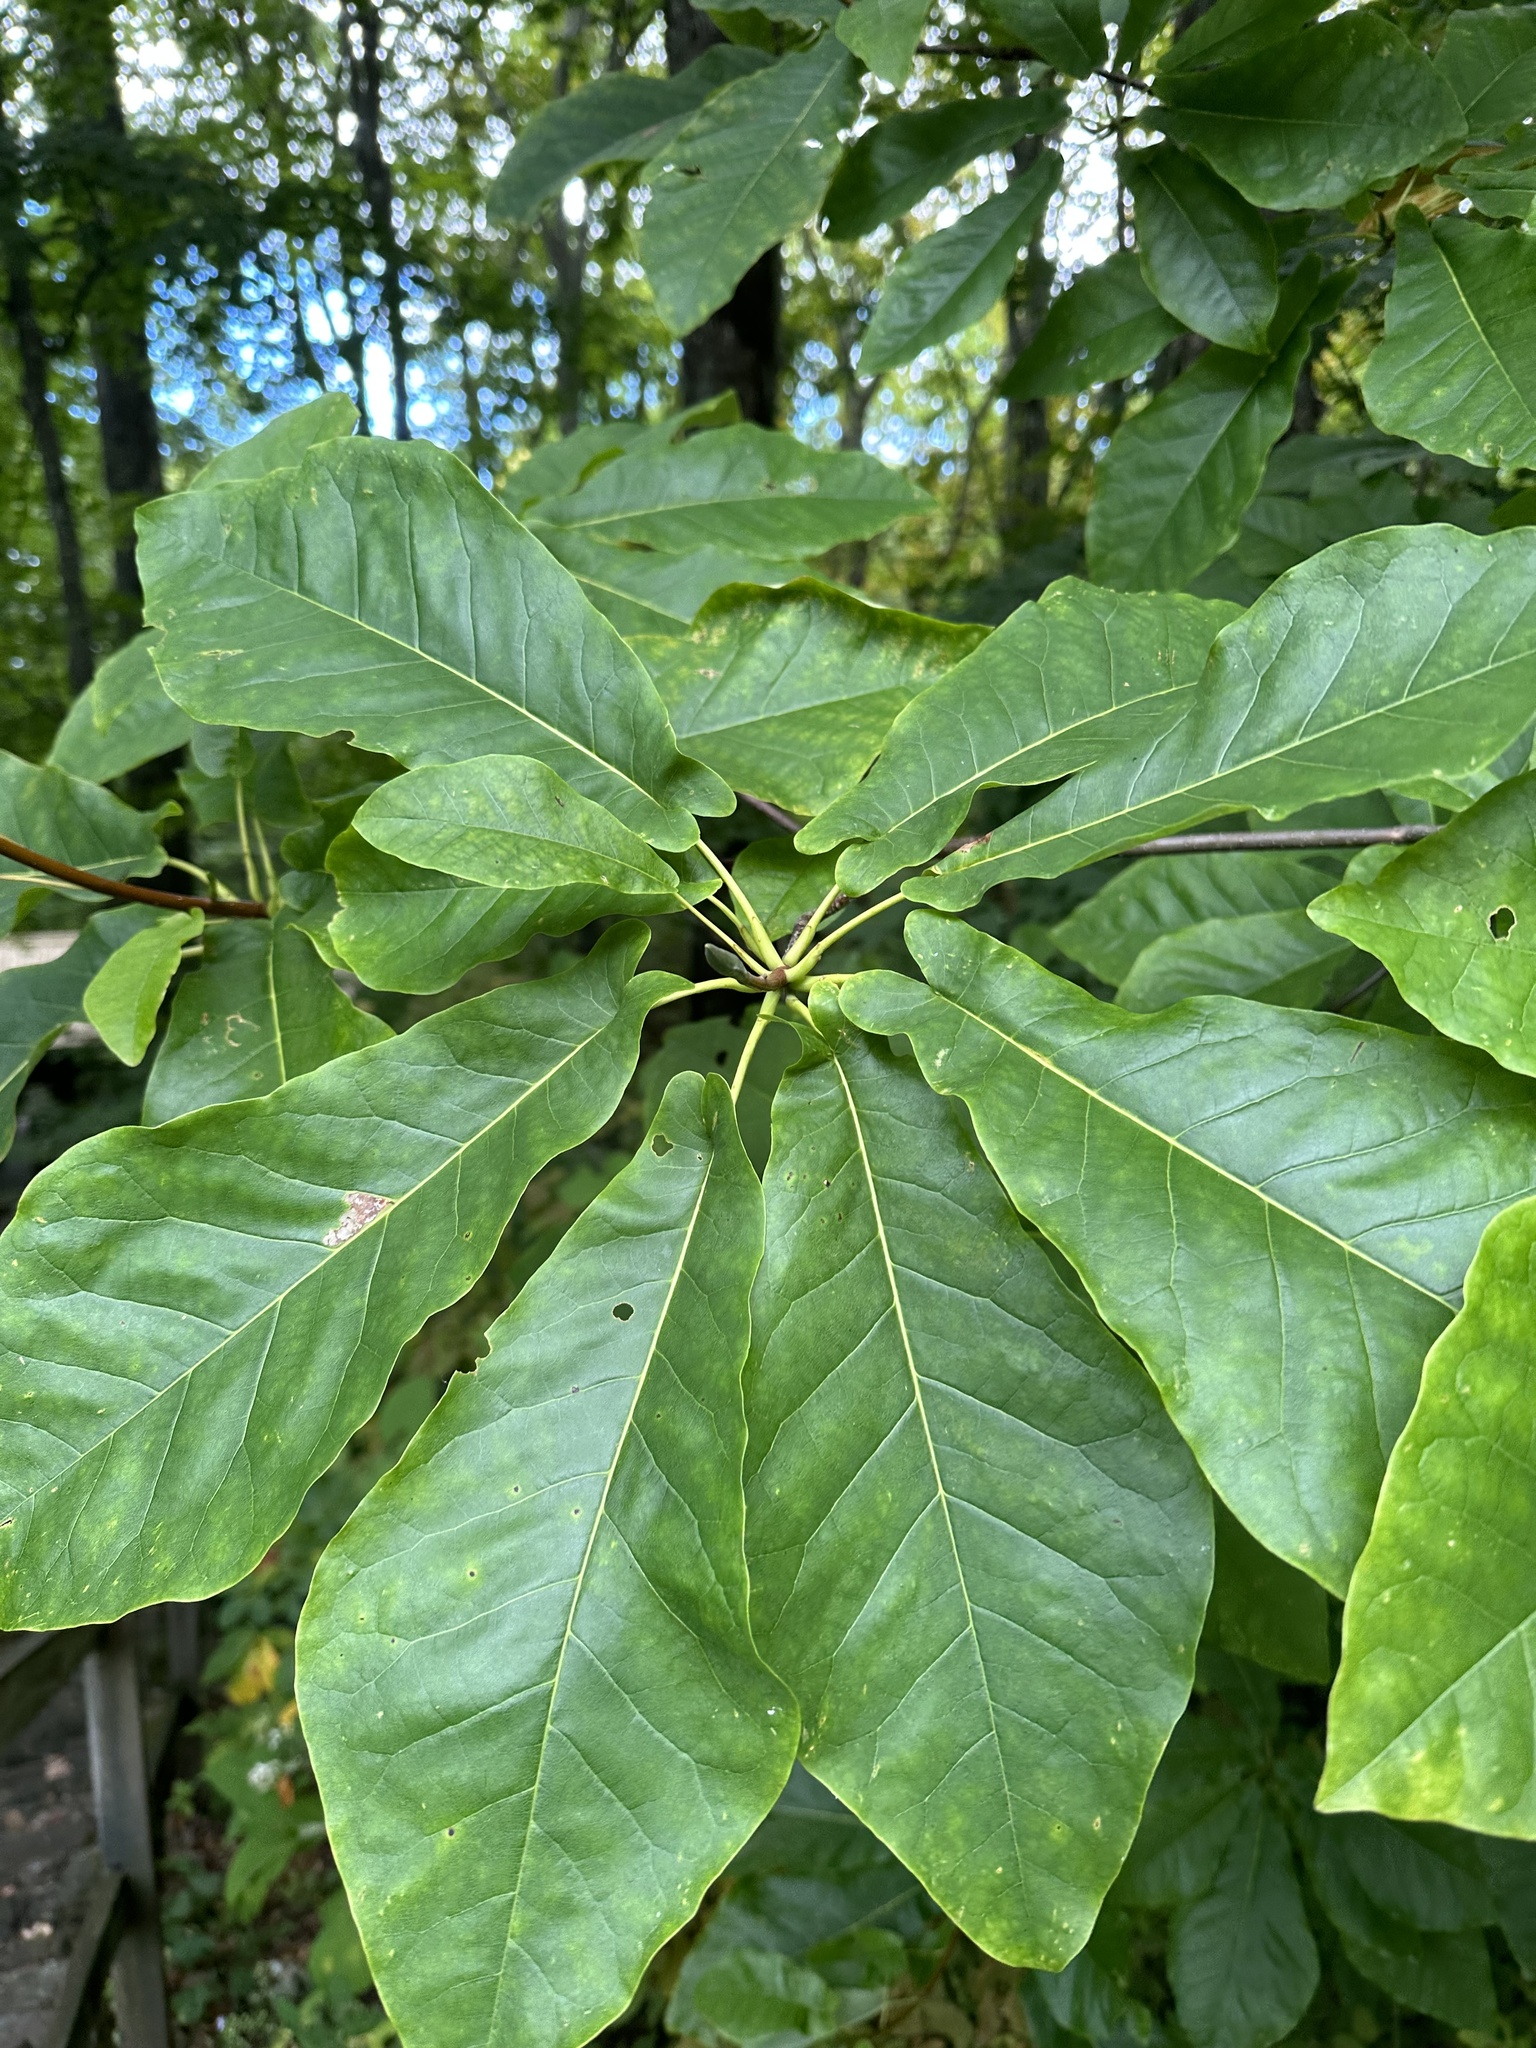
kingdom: Plantae
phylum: Tracheophyta
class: Magnoliopsida
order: Magnoliales
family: Magnoliaceae
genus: Magnolia
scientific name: Magnolia fraseri
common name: Fraser's magnolia
